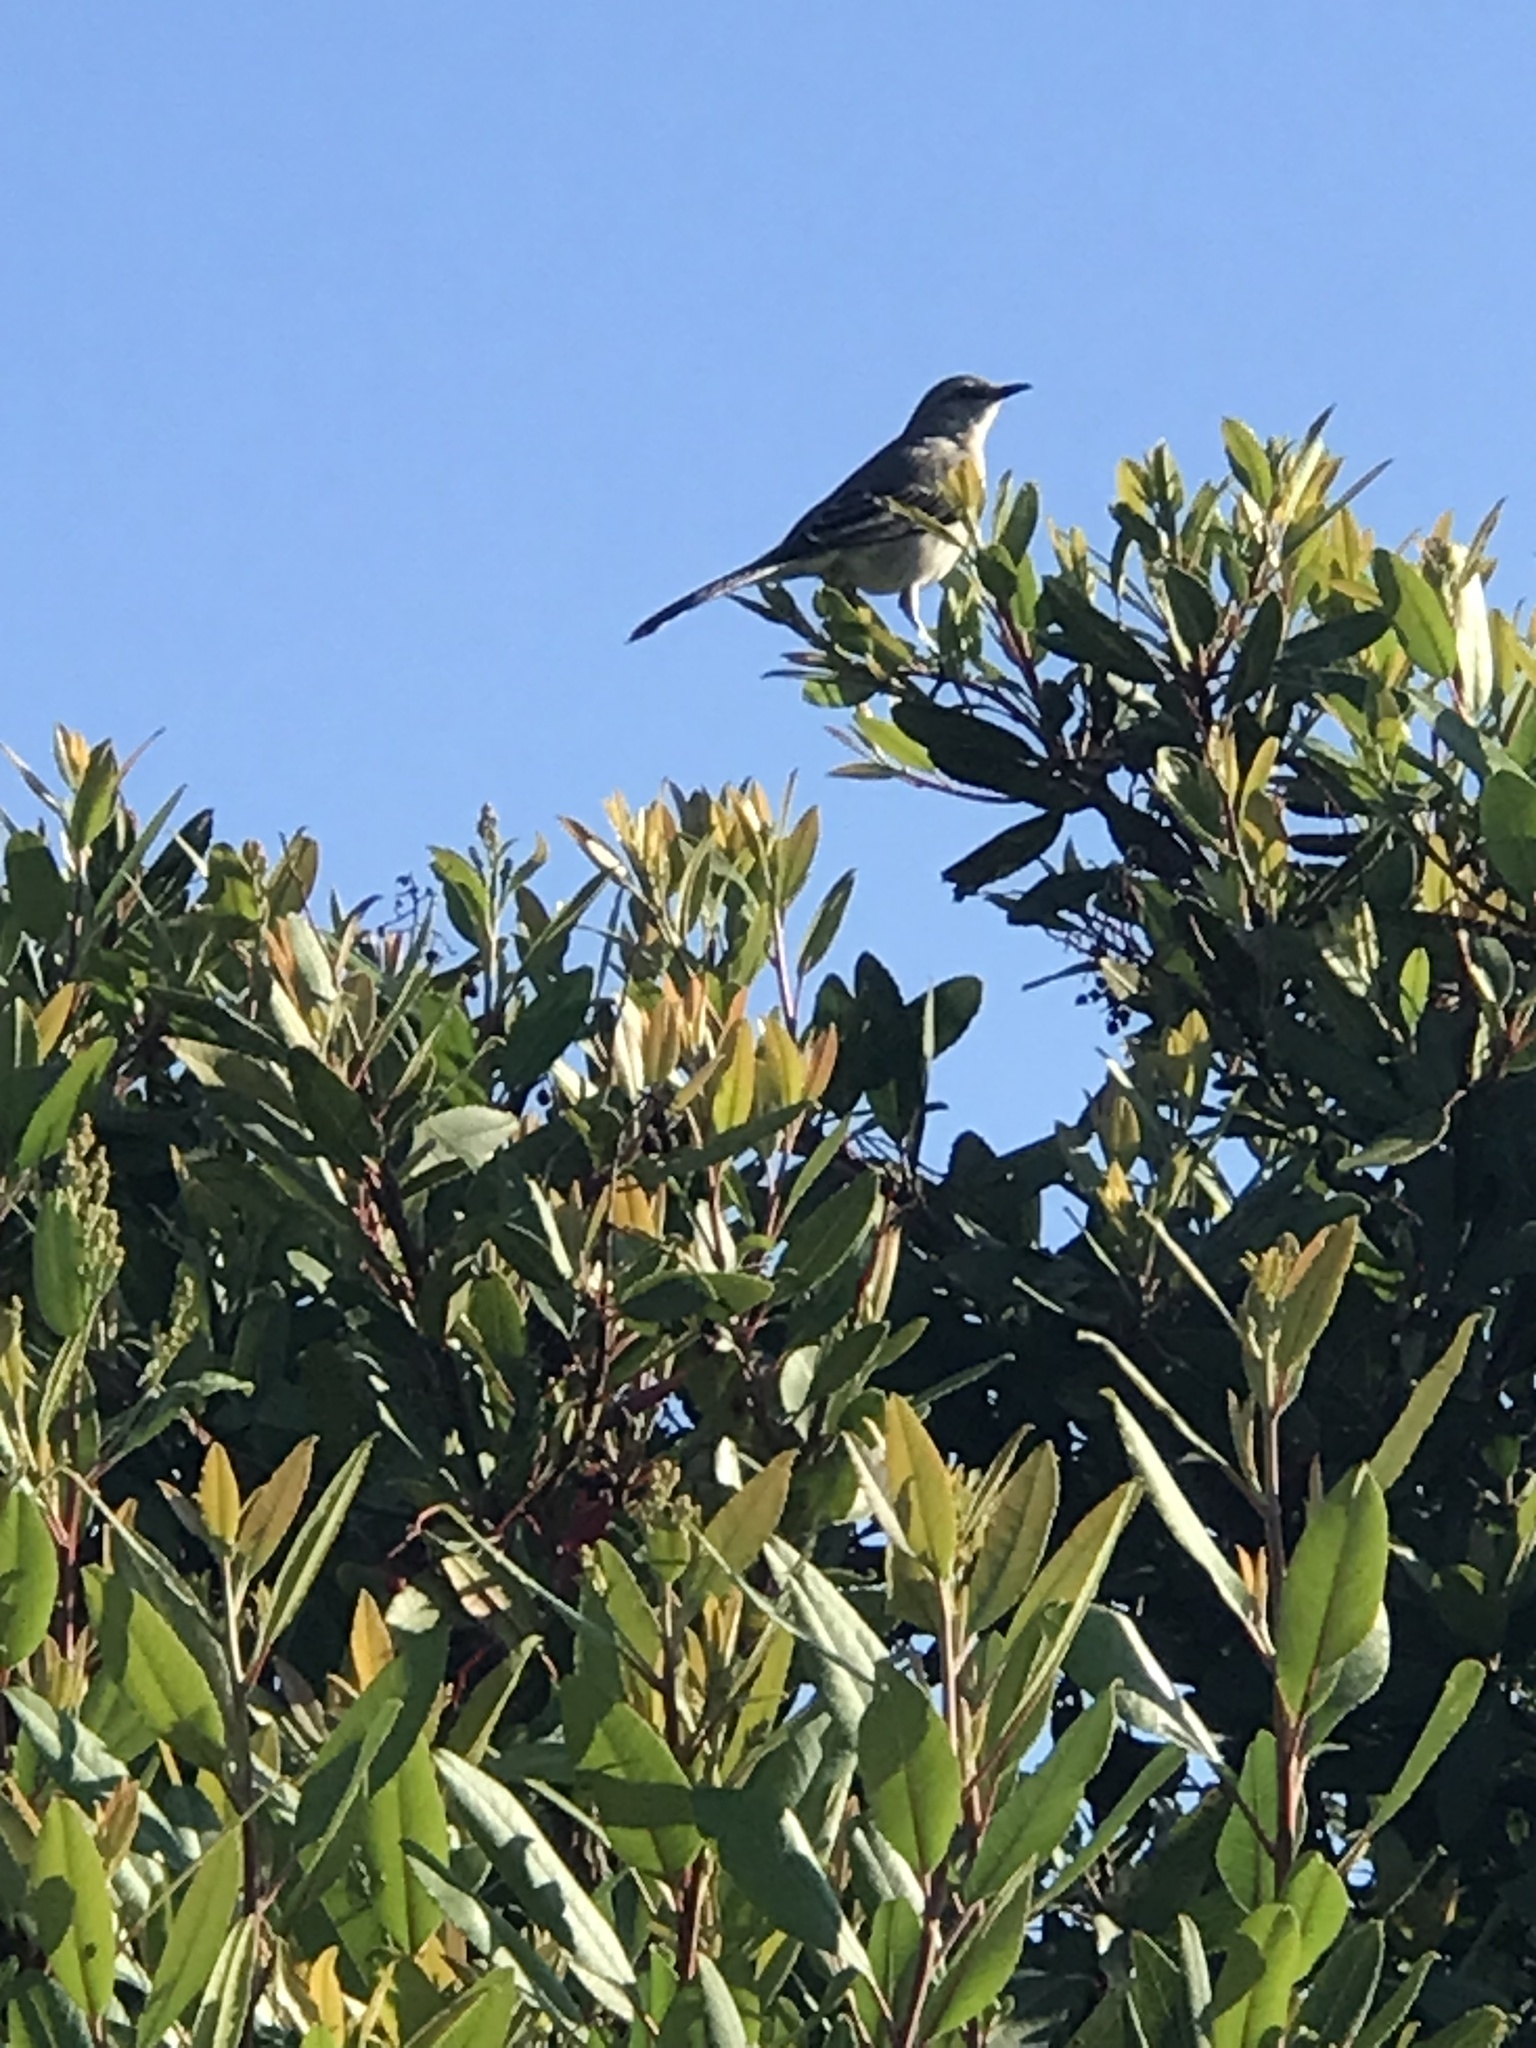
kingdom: Animalia
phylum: Chordata
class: Aves
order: Passeriformes
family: Mimidae
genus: Mimus
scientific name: Mimus polyglottos
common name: Northern mockingbird
